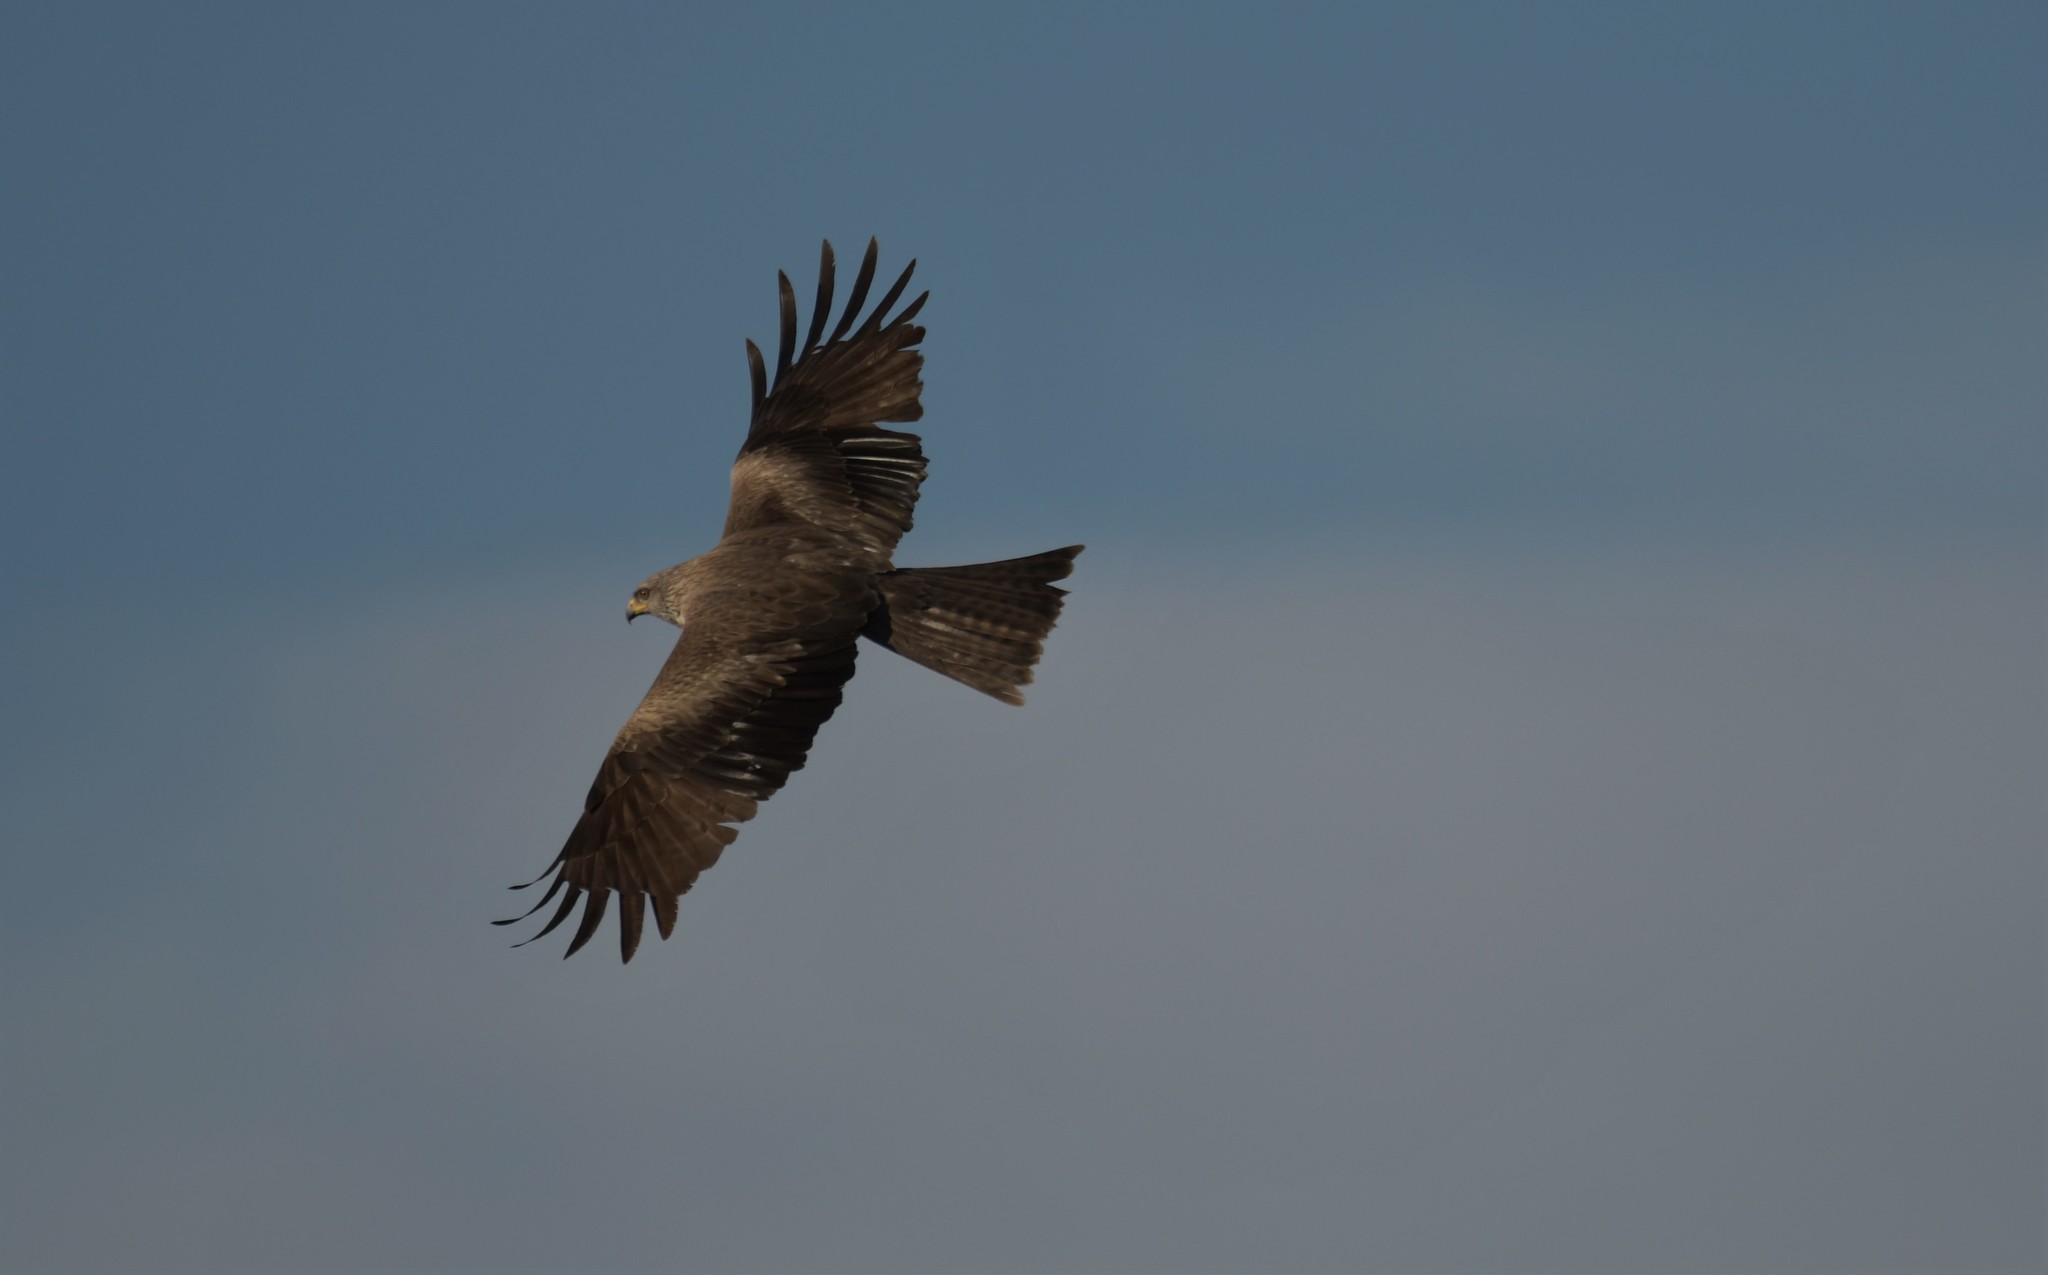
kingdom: Animalia
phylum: Chordata
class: Aves
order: Accipitriformes
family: Accipitridae
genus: Milvus
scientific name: Milvus migrans
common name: Black kite
